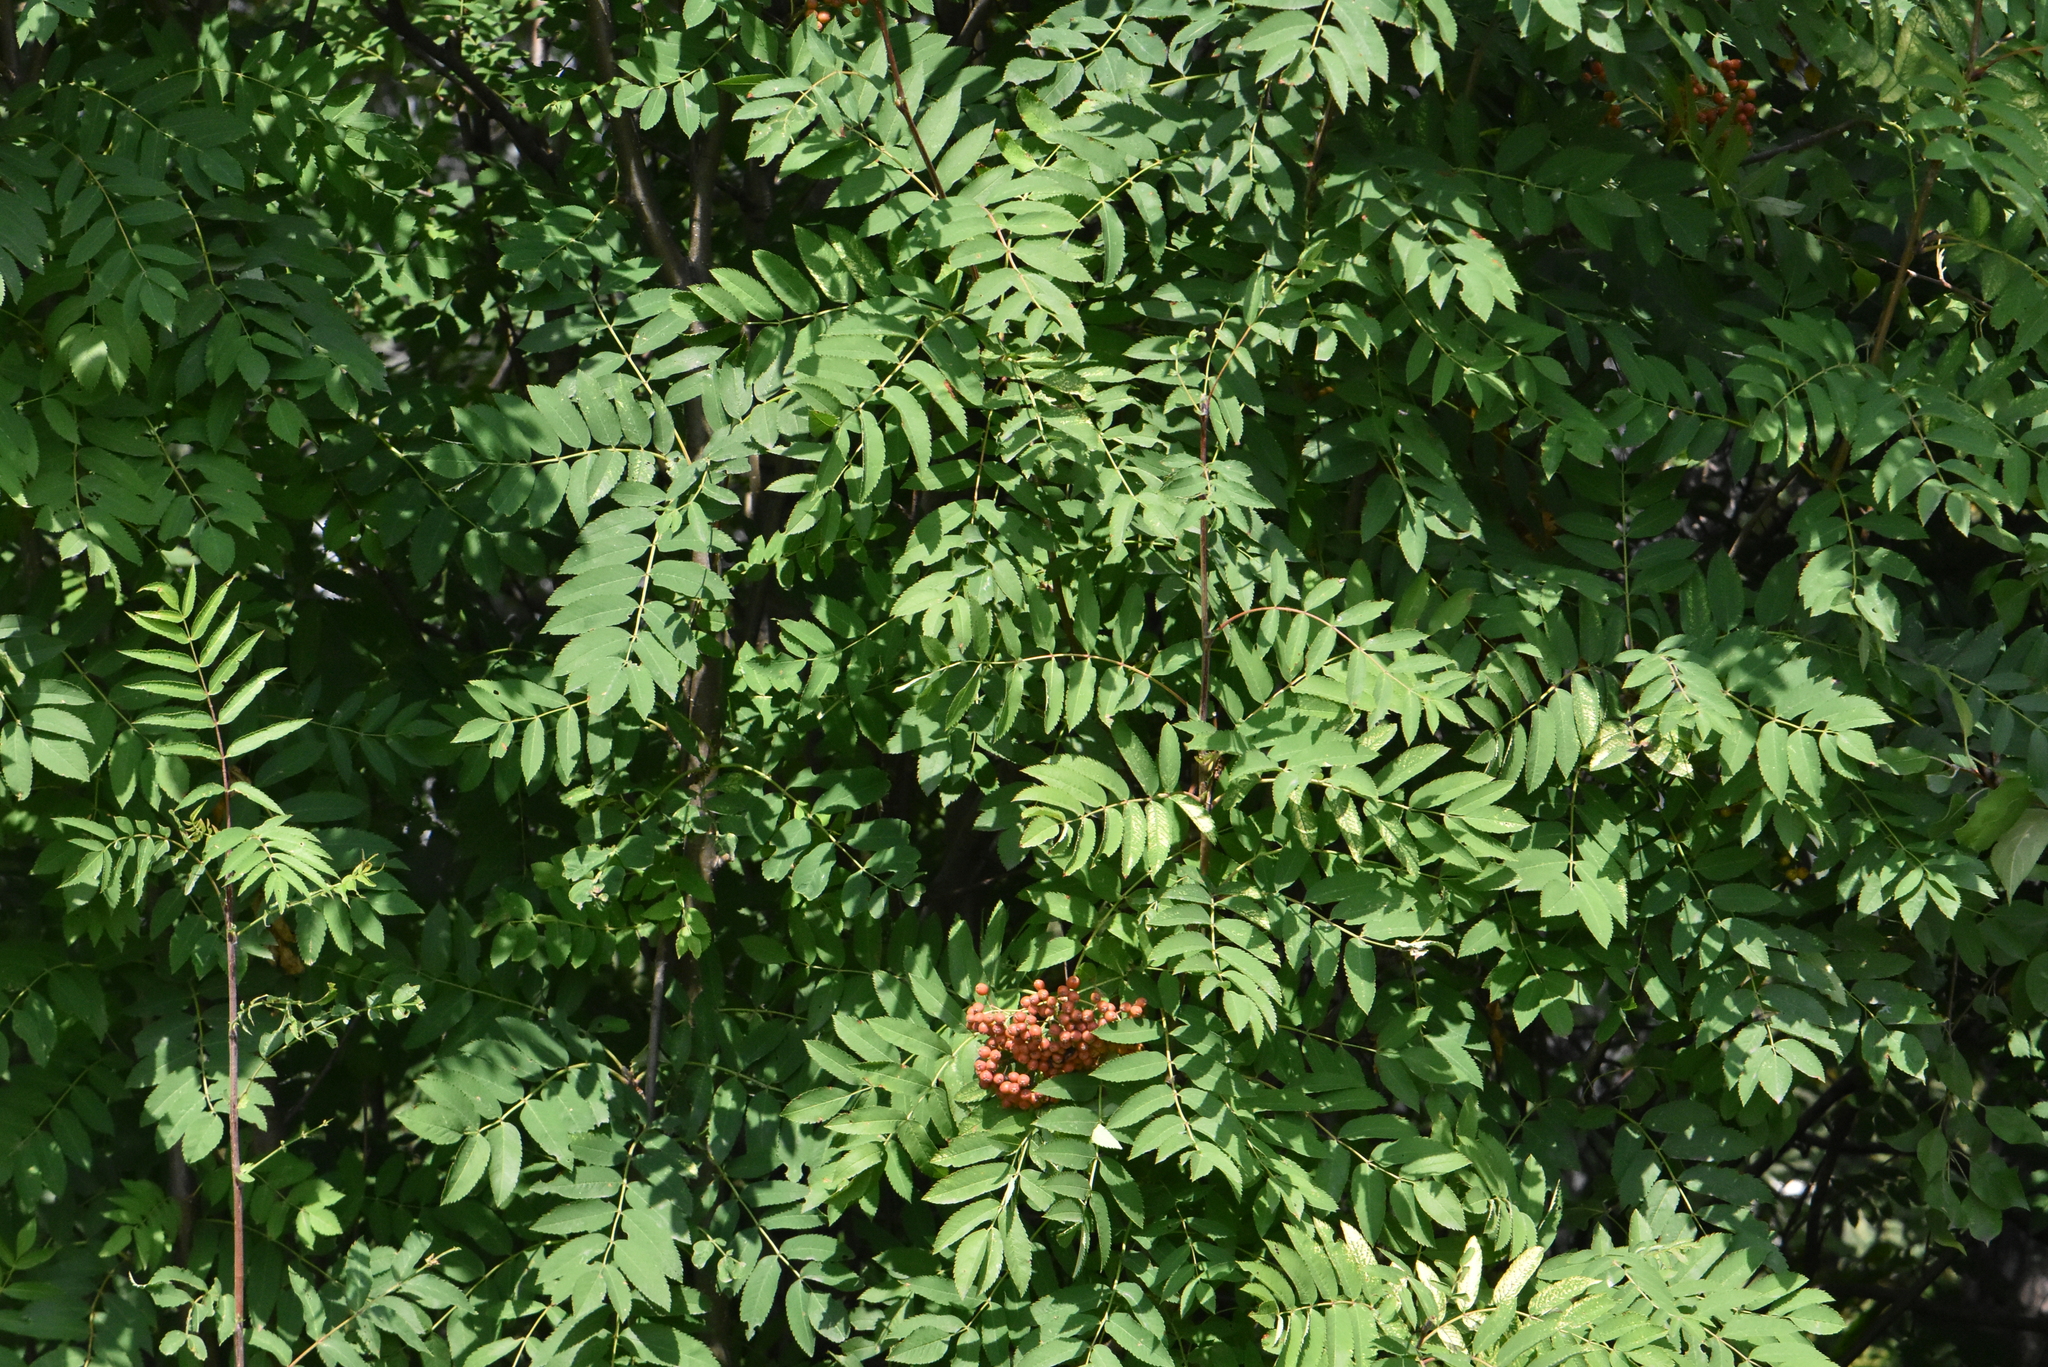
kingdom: Plantae
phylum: Tracheophyta
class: Magnoliopsida
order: Rosales
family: Rosaceae
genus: Sorbus
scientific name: Sorbus aucuparia
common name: Rowan
